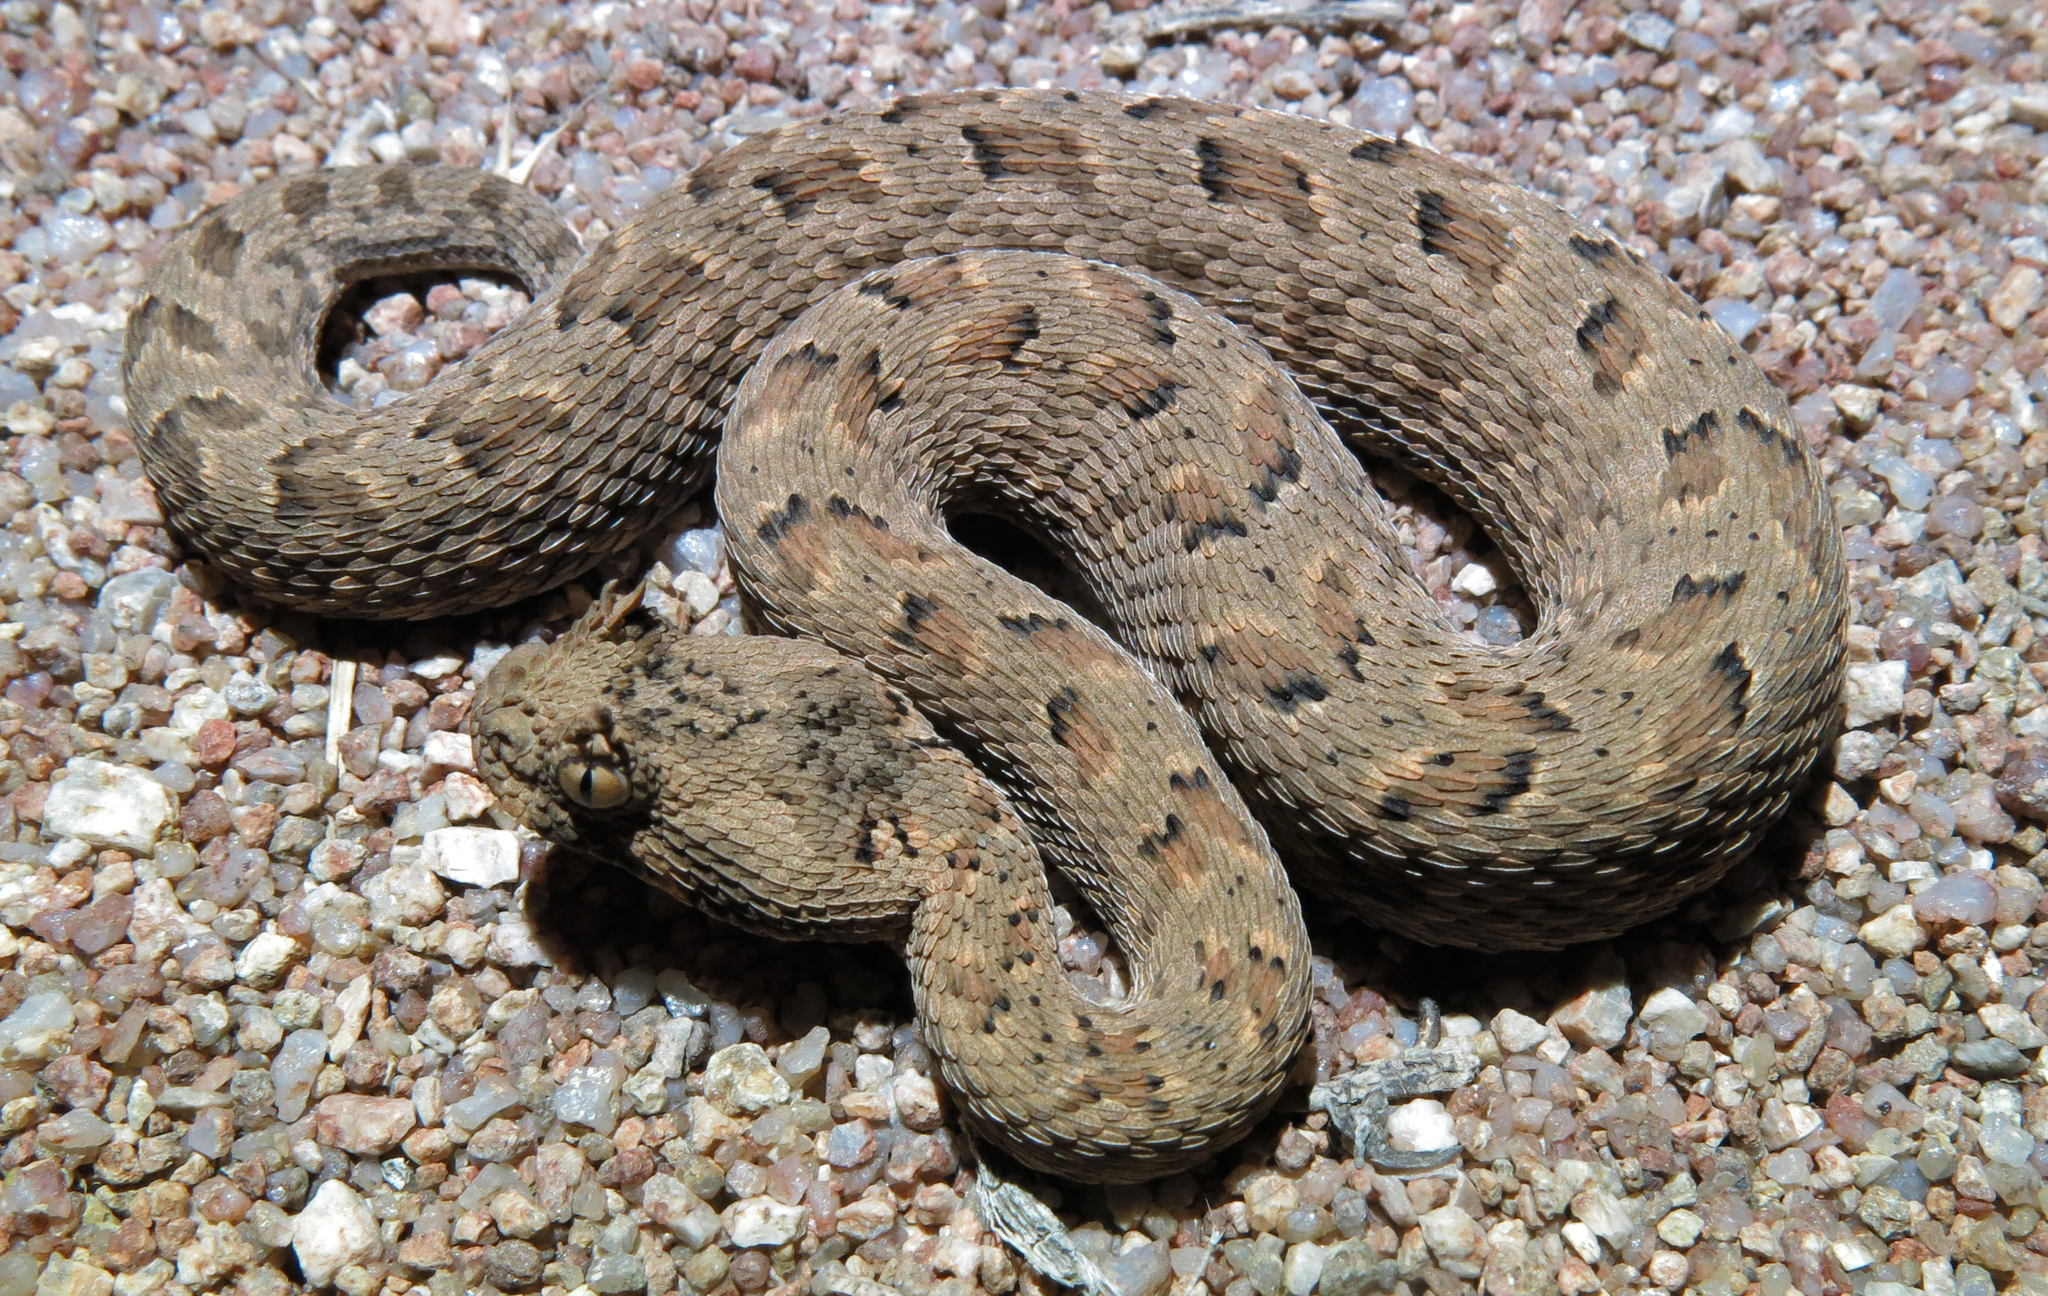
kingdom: Animalia
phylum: Chordata
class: Squamata
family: Viperidae
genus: Bitis
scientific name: Bitis cornuta
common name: Many-horned adder
